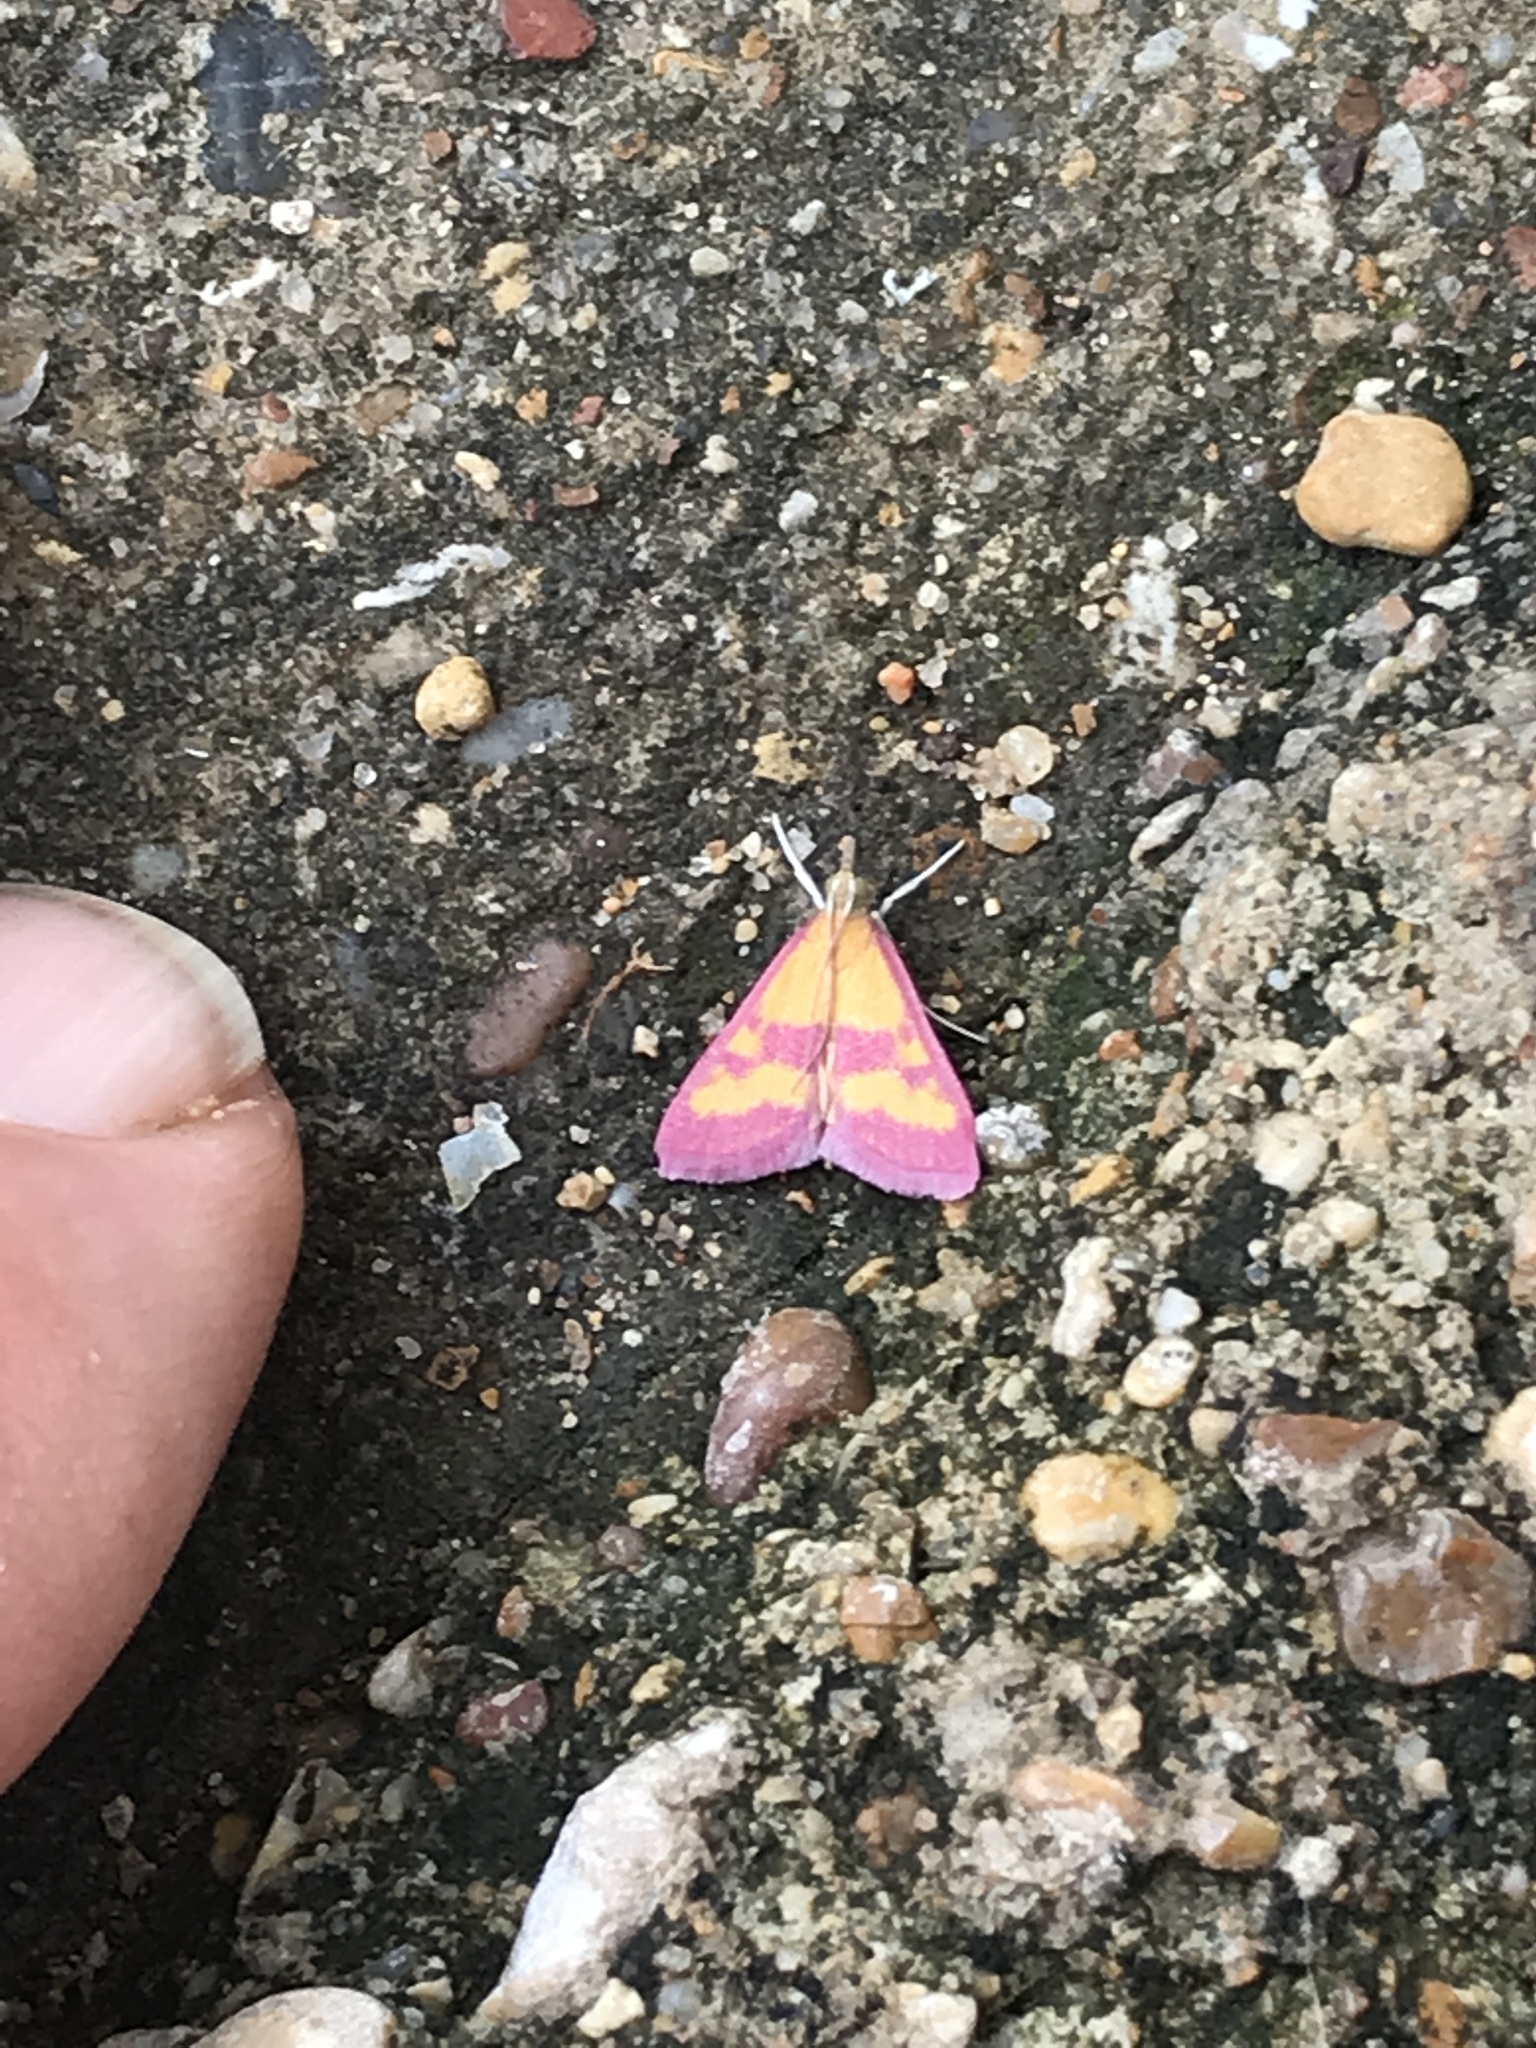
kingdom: Animalia
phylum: Arthropoda
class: Insecta
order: Lepidoptera
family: Crambidae
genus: Pyrausta
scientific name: Pyrausta laticlavia
